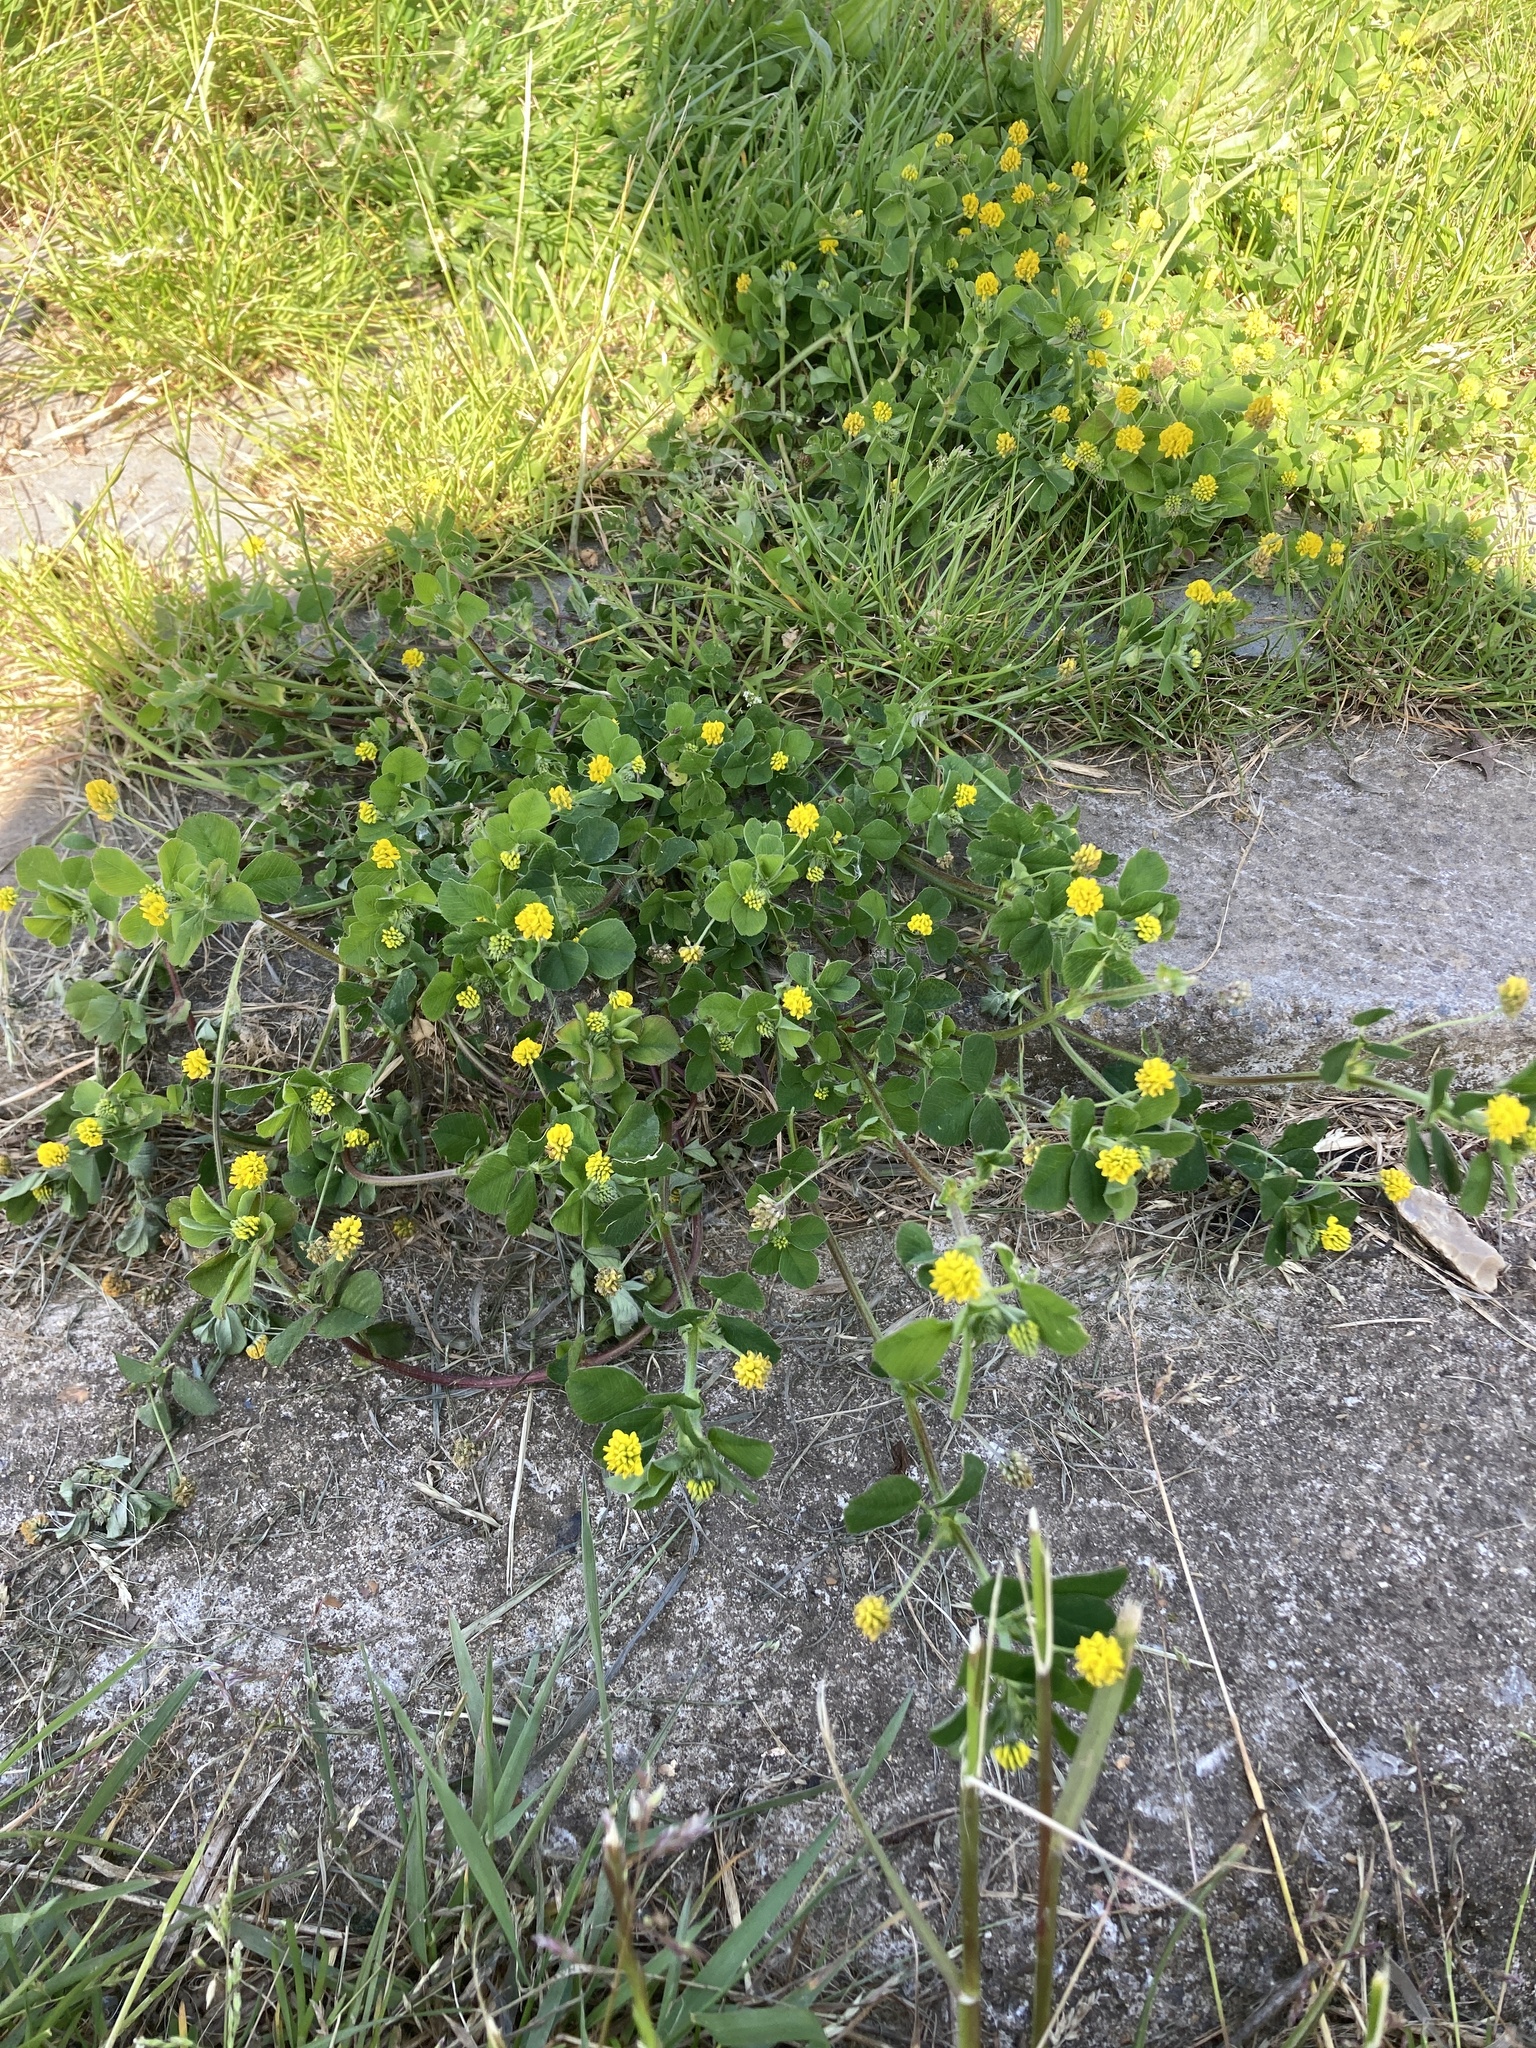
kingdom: Plantae
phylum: Tracheophyta
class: Magnoliopsida
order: Fabales
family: Fabaceae
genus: Medicago
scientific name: Medicago lupulina
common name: Black medick
